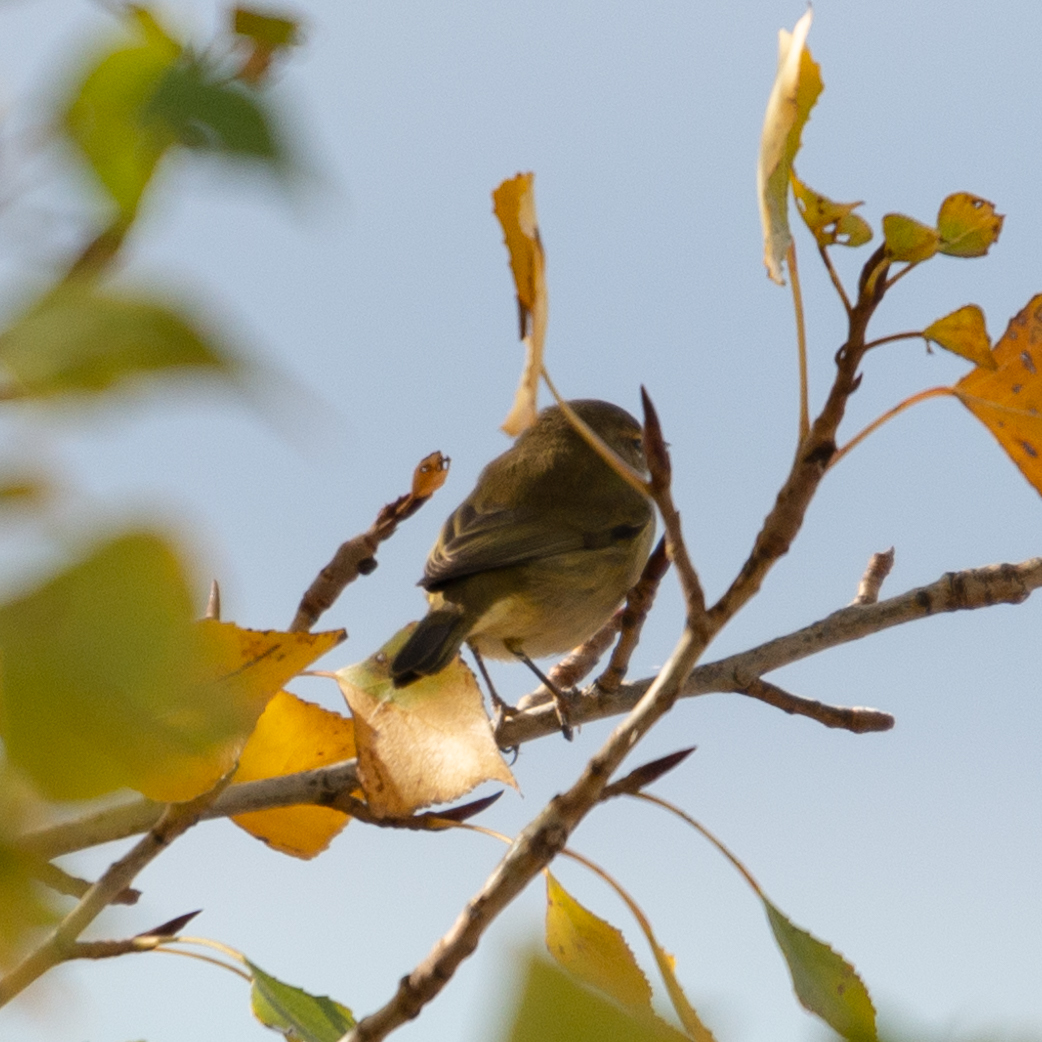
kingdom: Animalia
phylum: Chordata
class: Aves
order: Passeriformes
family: Phylloscopidae
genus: Phylloscopus
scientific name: Phylloscopus collybita
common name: Common chiffchaff
